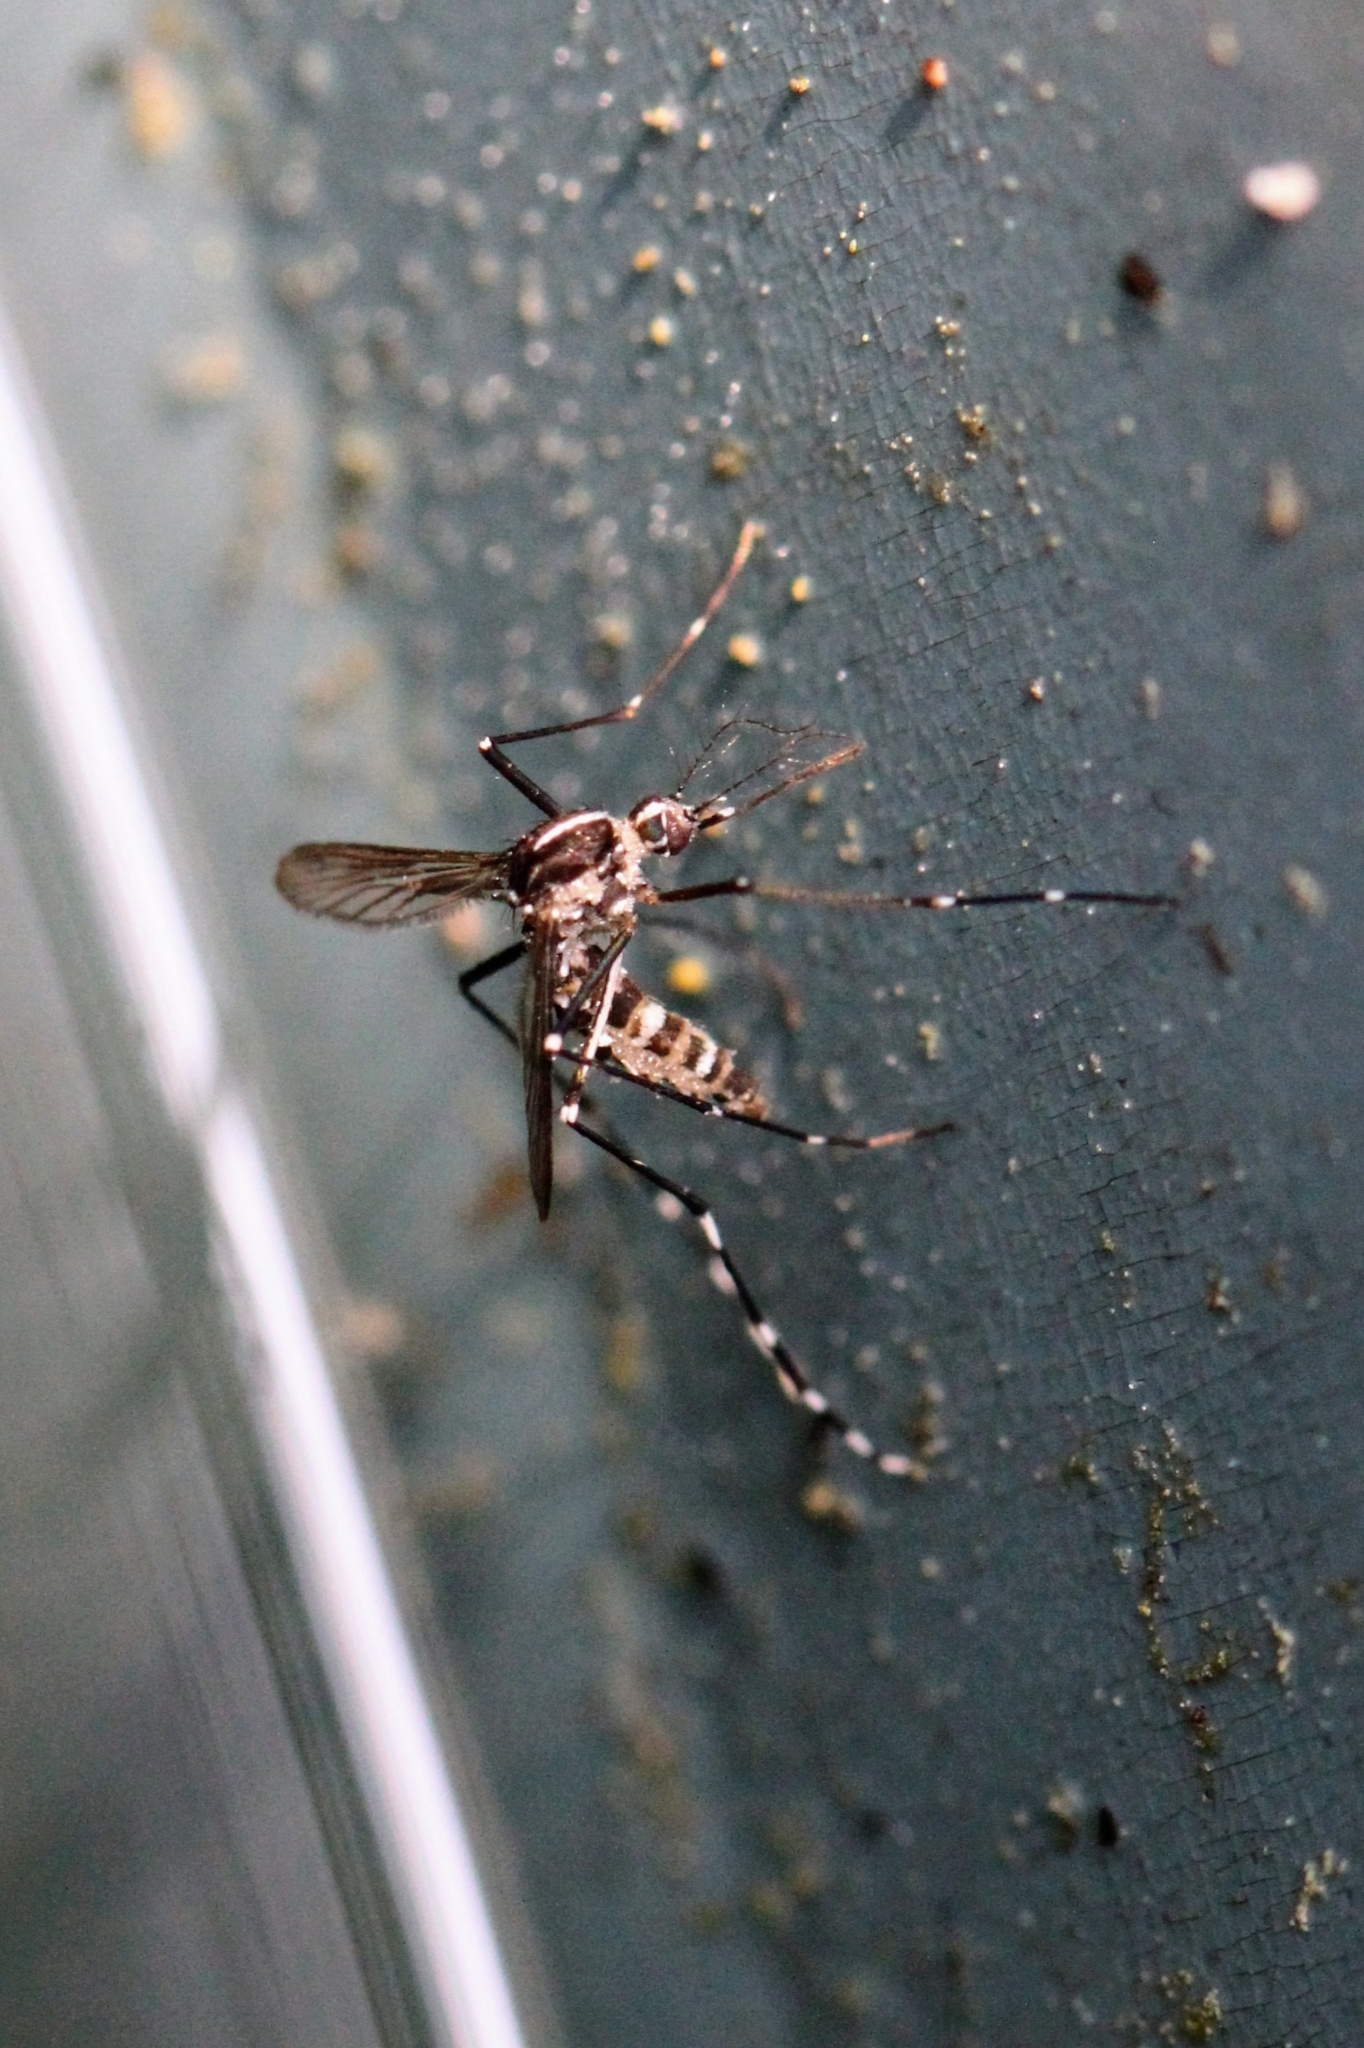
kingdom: Animalia
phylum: Arthropoda
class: Insecta
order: Diptera
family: Culicidae
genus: Aedes
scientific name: Aedes albopictus
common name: Tiger mosquito
